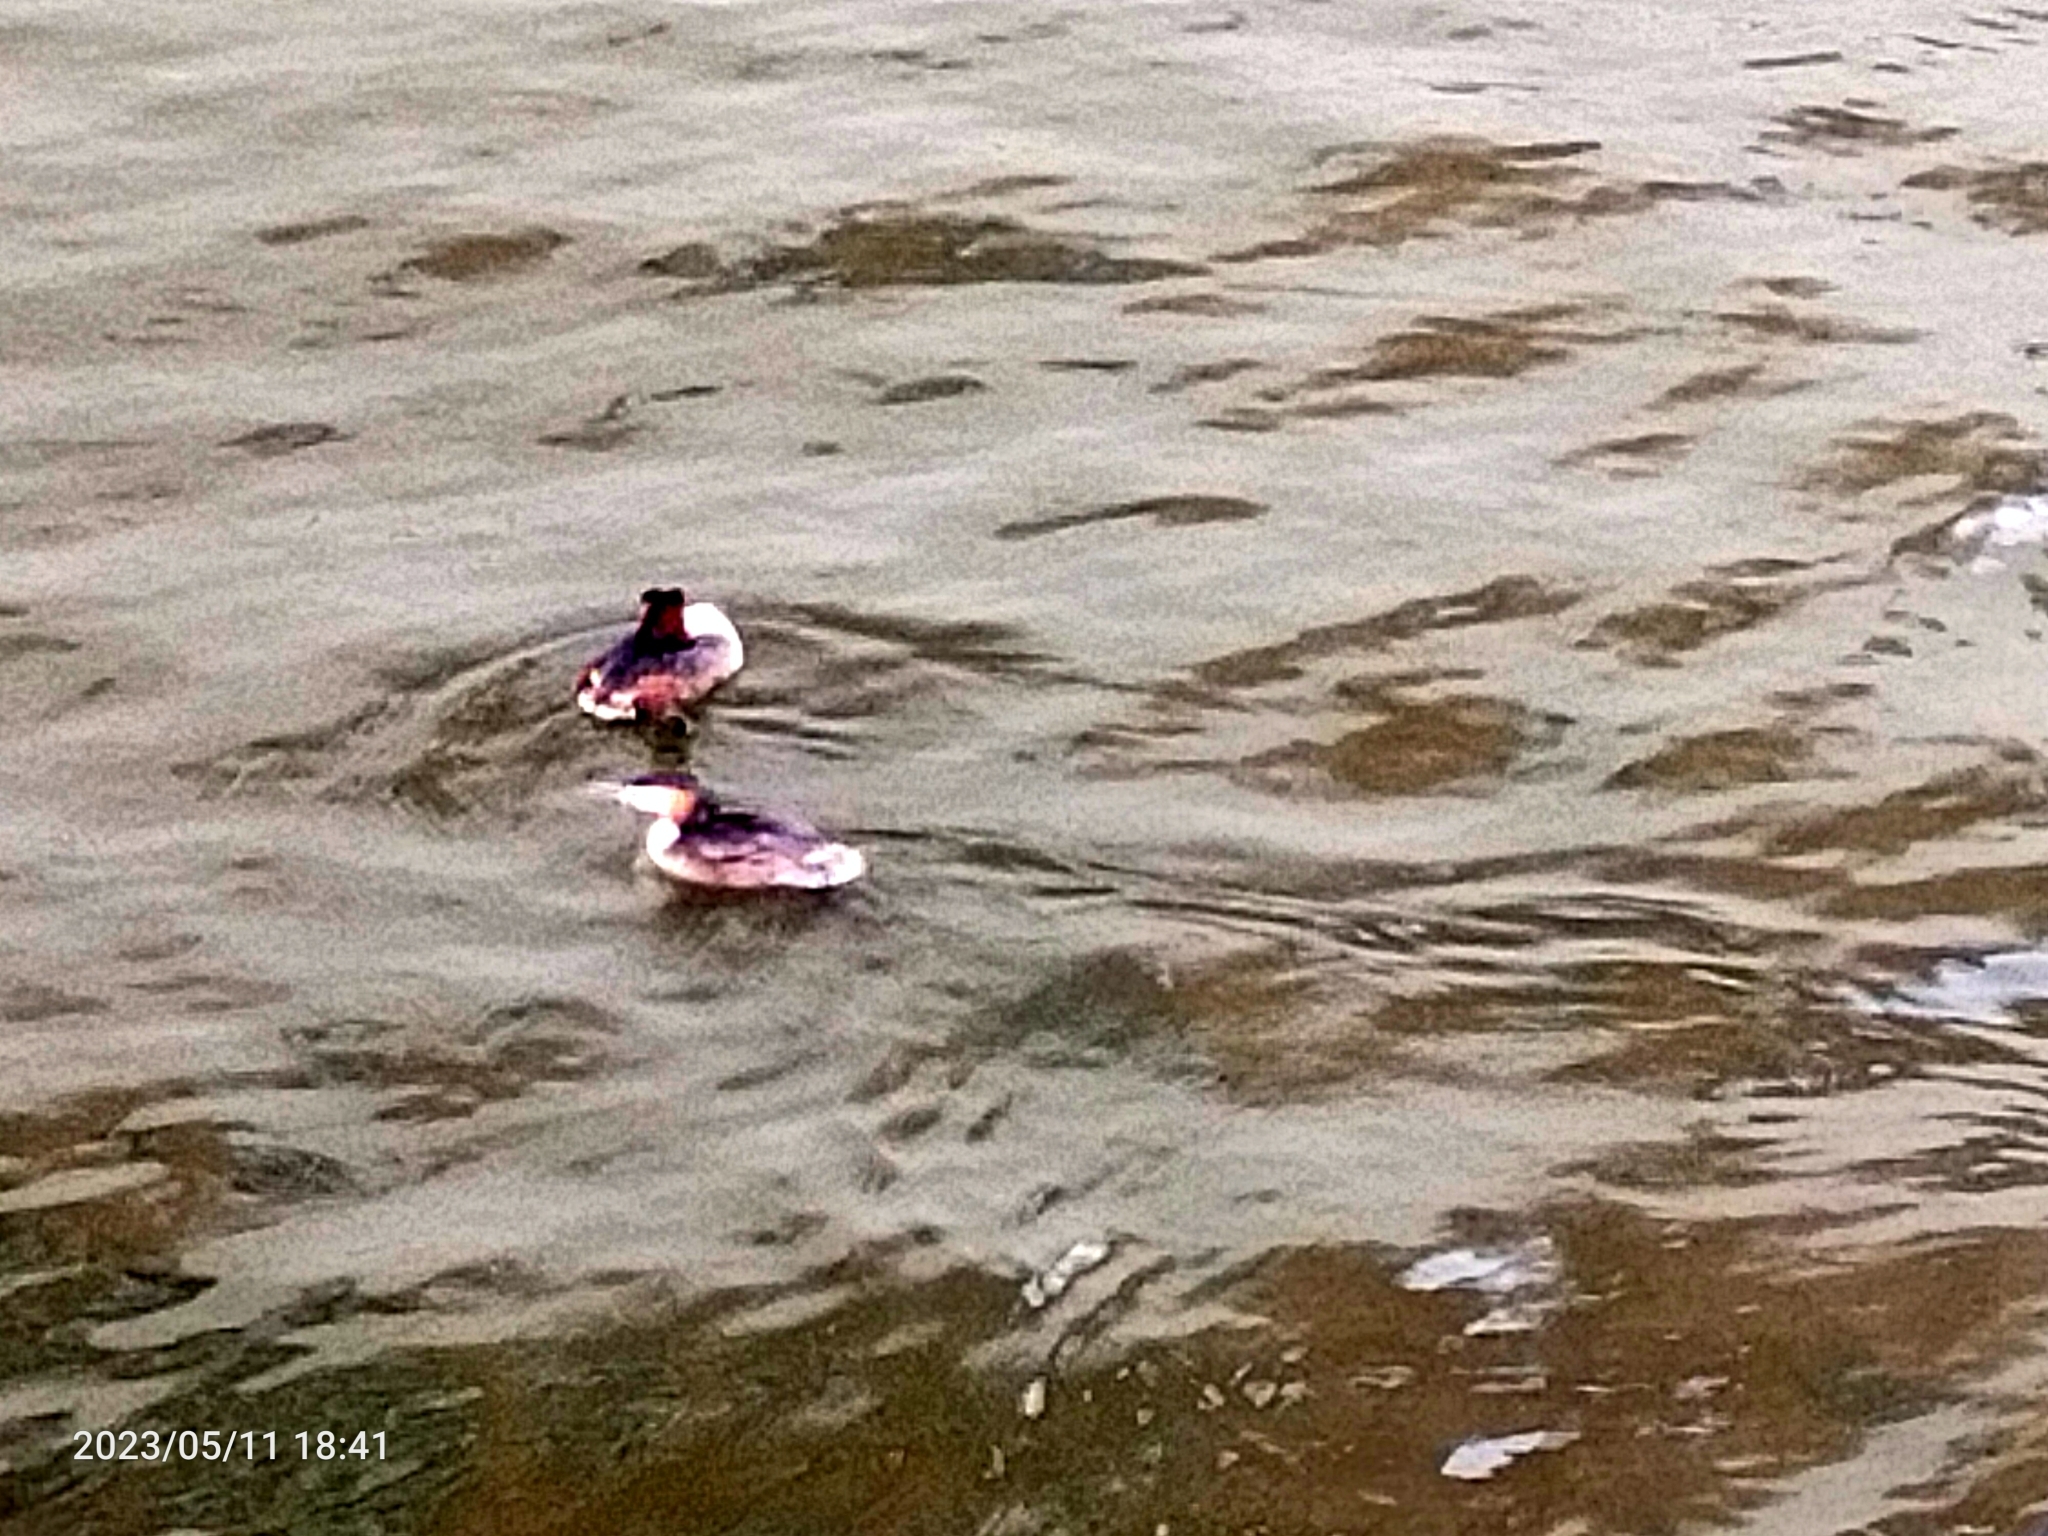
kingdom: Animalia
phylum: Chordata
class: Aves
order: Podicipediformes
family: Podicipedidae
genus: Podiceps
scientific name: Podiceps cristatus
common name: Great crested grebe
